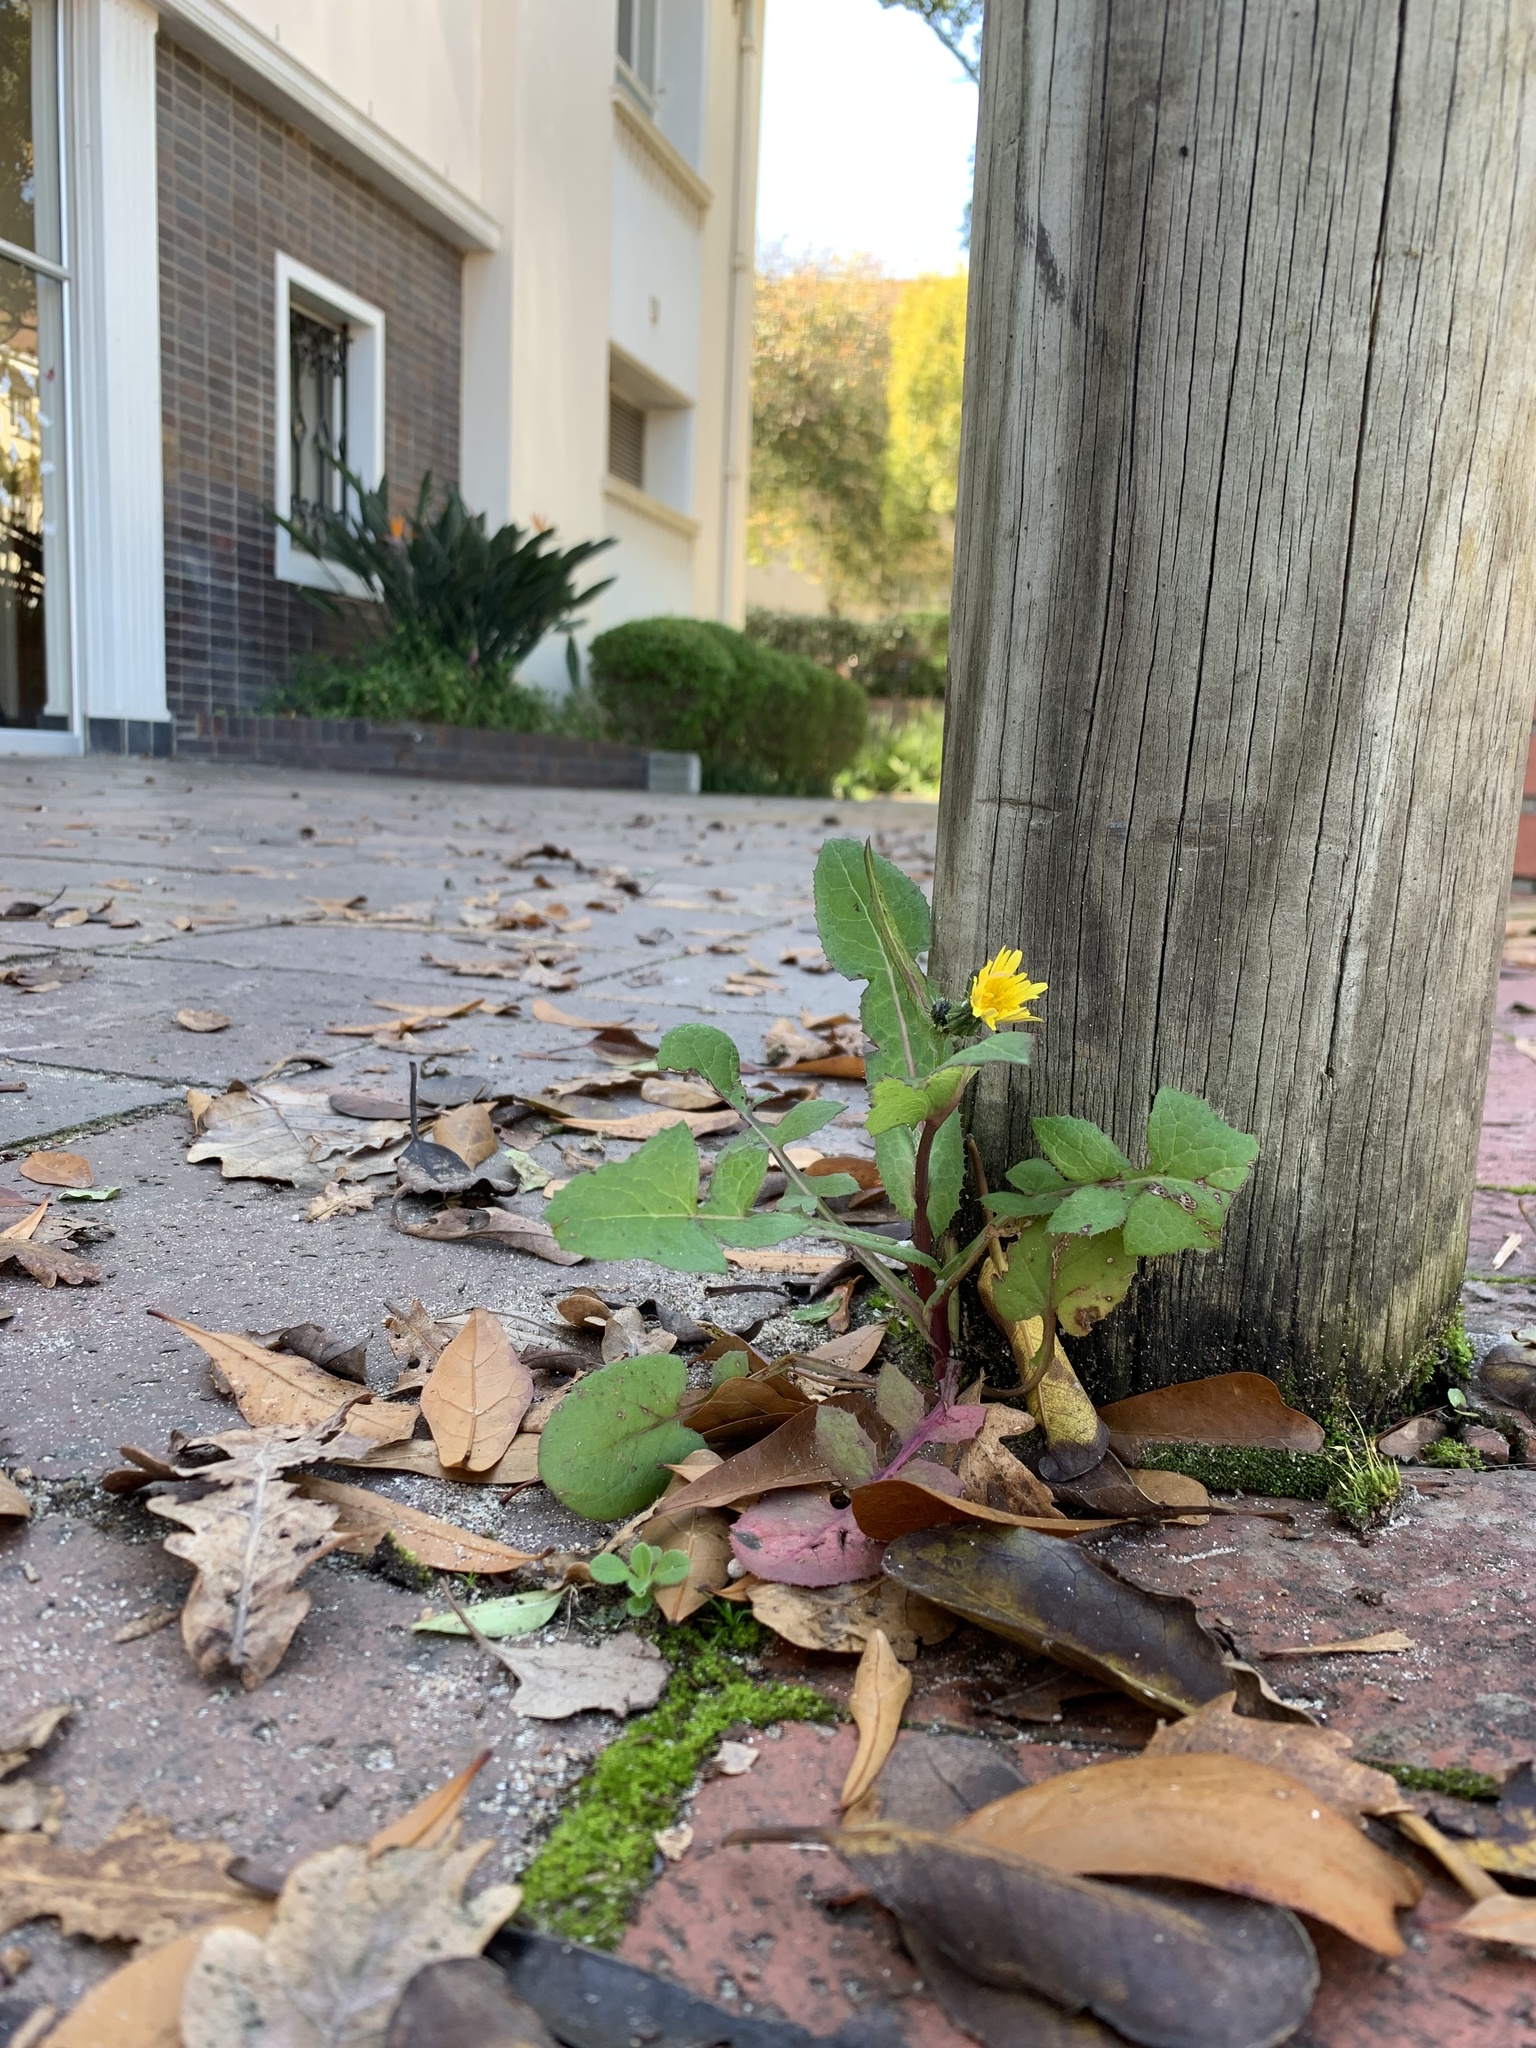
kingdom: Plantae
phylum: Tracheophyta
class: Magnoliopsida
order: Asterales
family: Asteraceae
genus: Sonchus
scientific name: Sonchus oleraceus
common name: Common sowthistle
